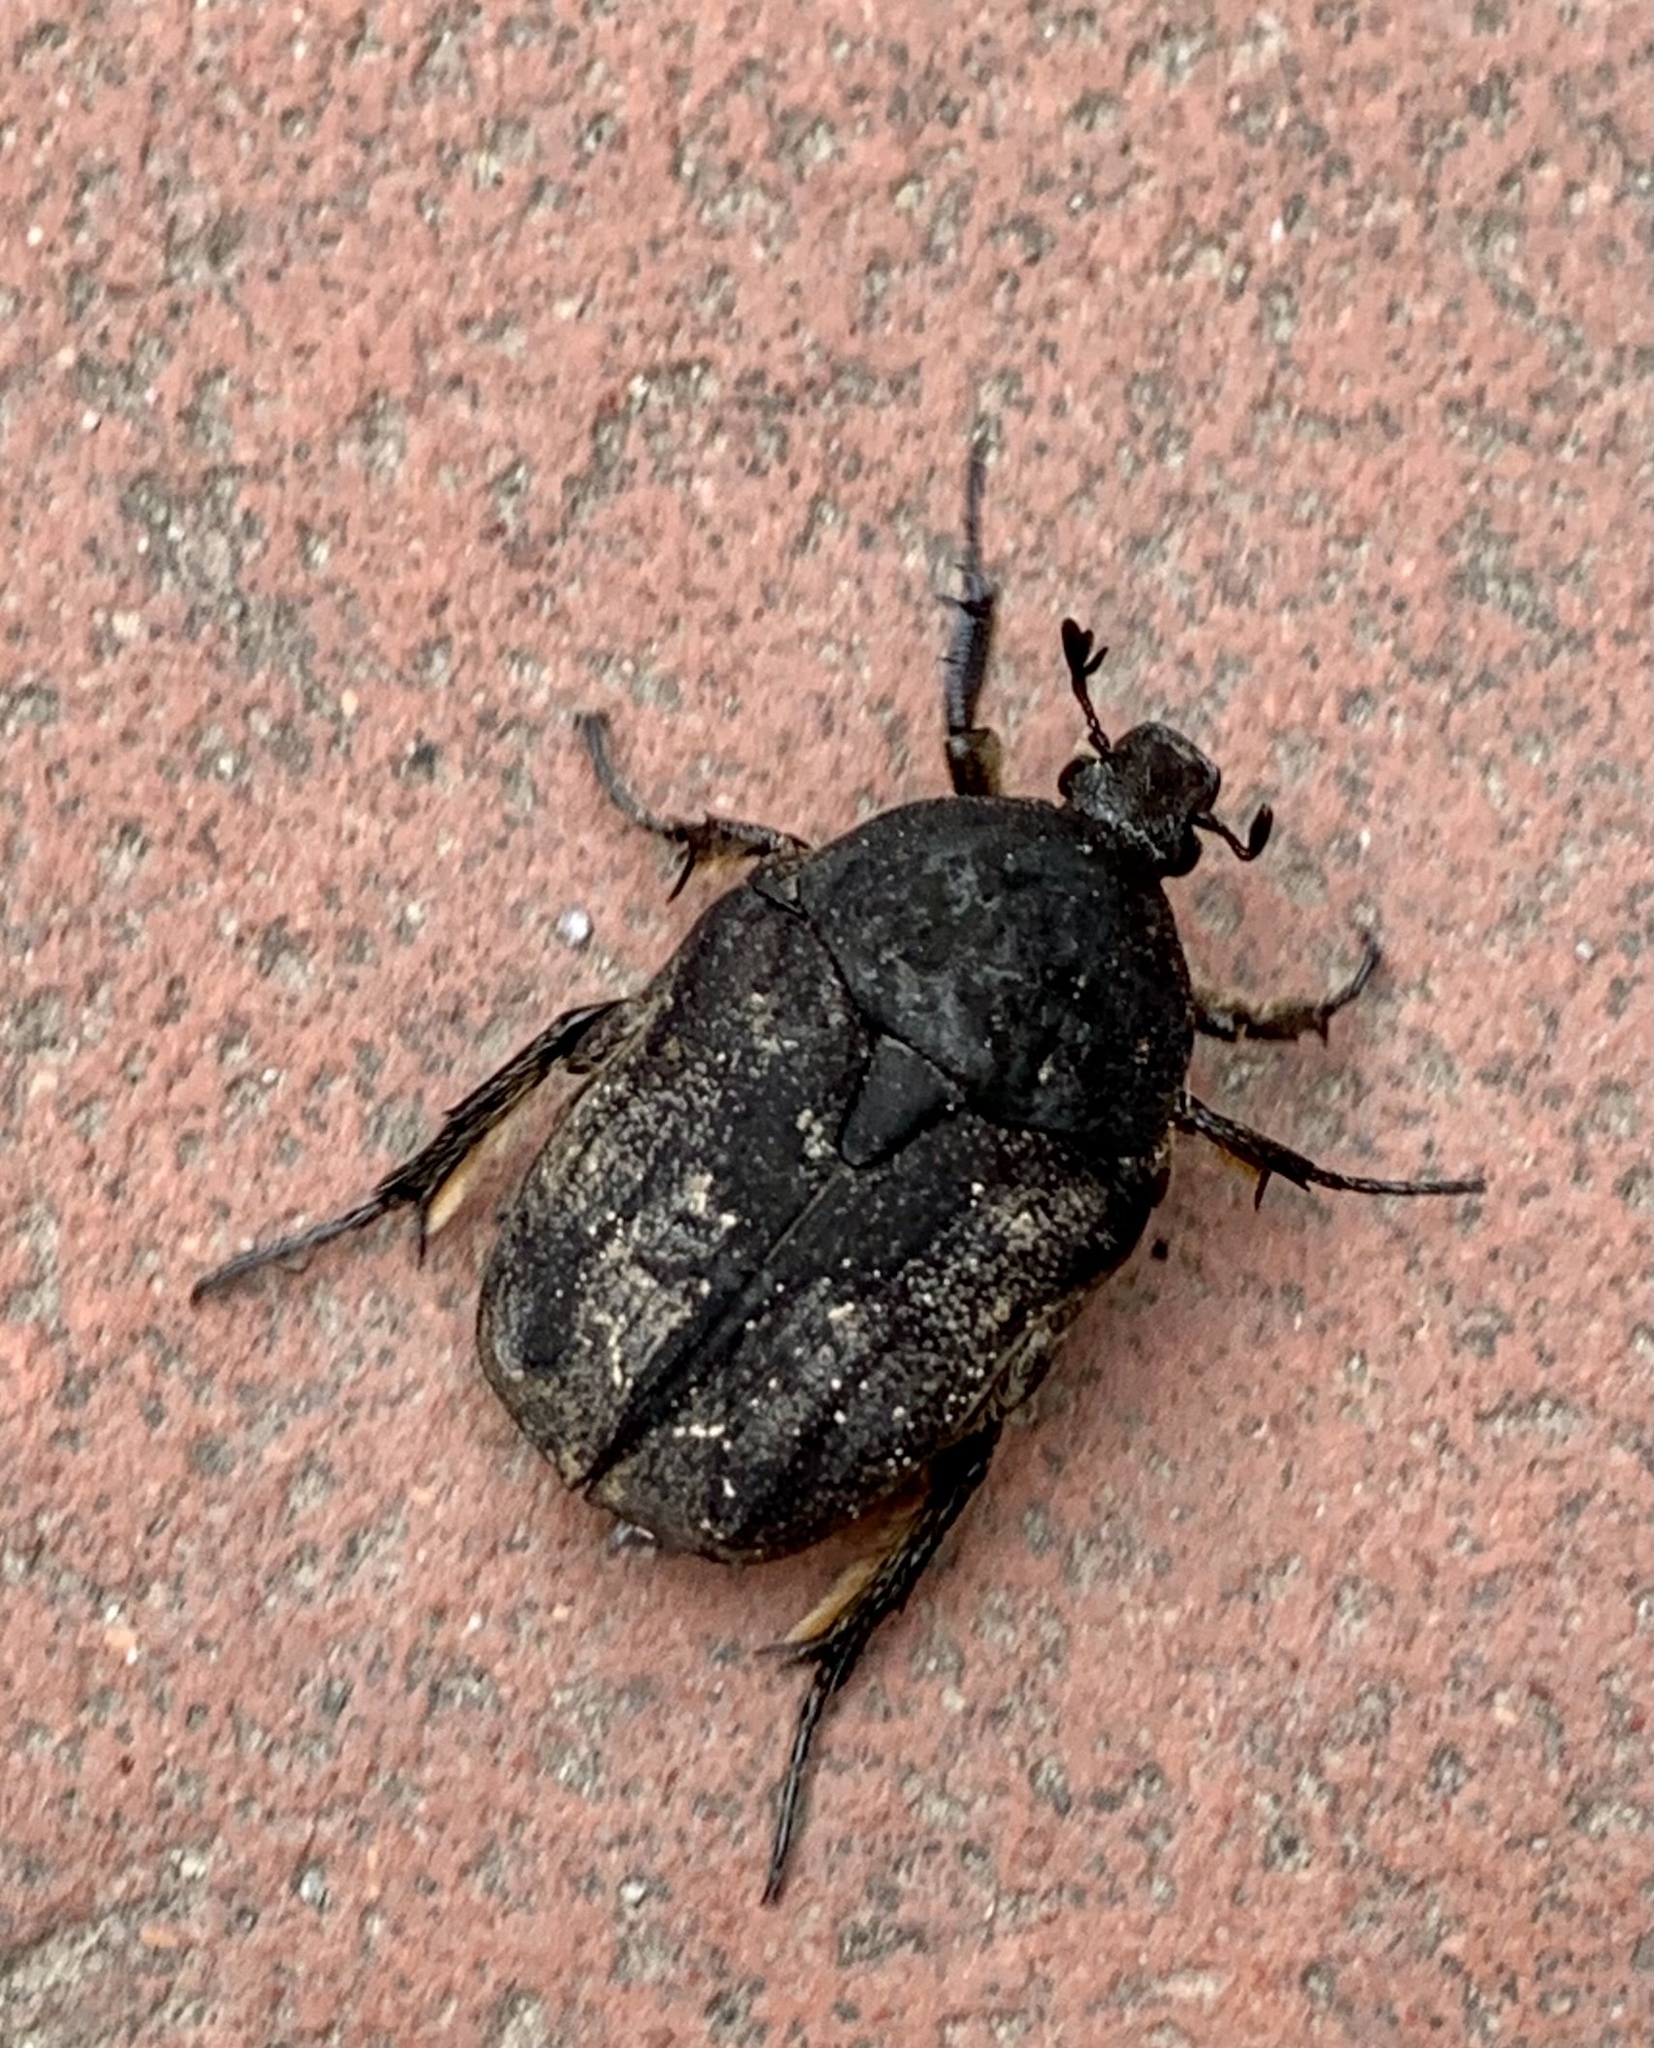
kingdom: Animalia
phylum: Arthropoda
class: Insecta
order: Coleoptera
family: Scarabaeidae
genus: Protaetia
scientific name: Protaetia morio
